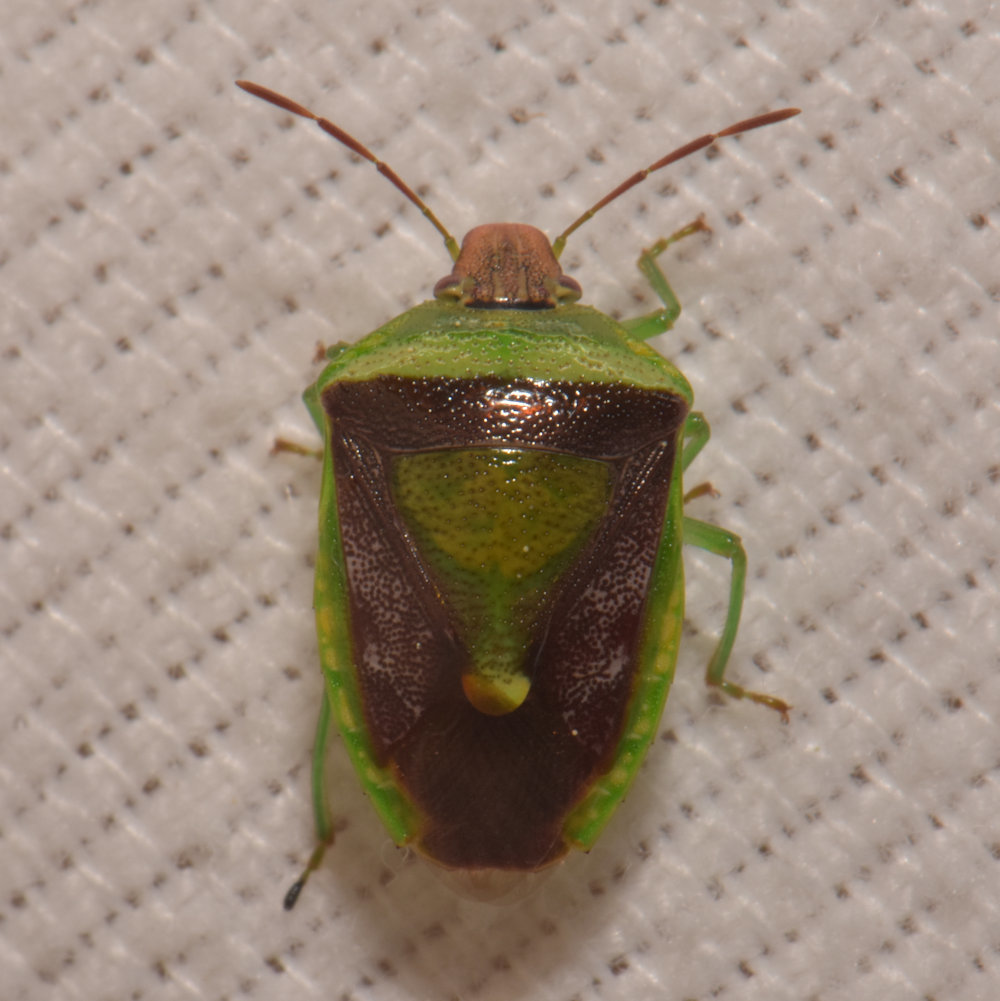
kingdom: Animalia
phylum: Arthropoda
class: Insecta
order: Hemiptera
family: Pentatomidae
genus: Banasa
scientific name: Banasa dimidiata
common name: Green burgundy stink bug
